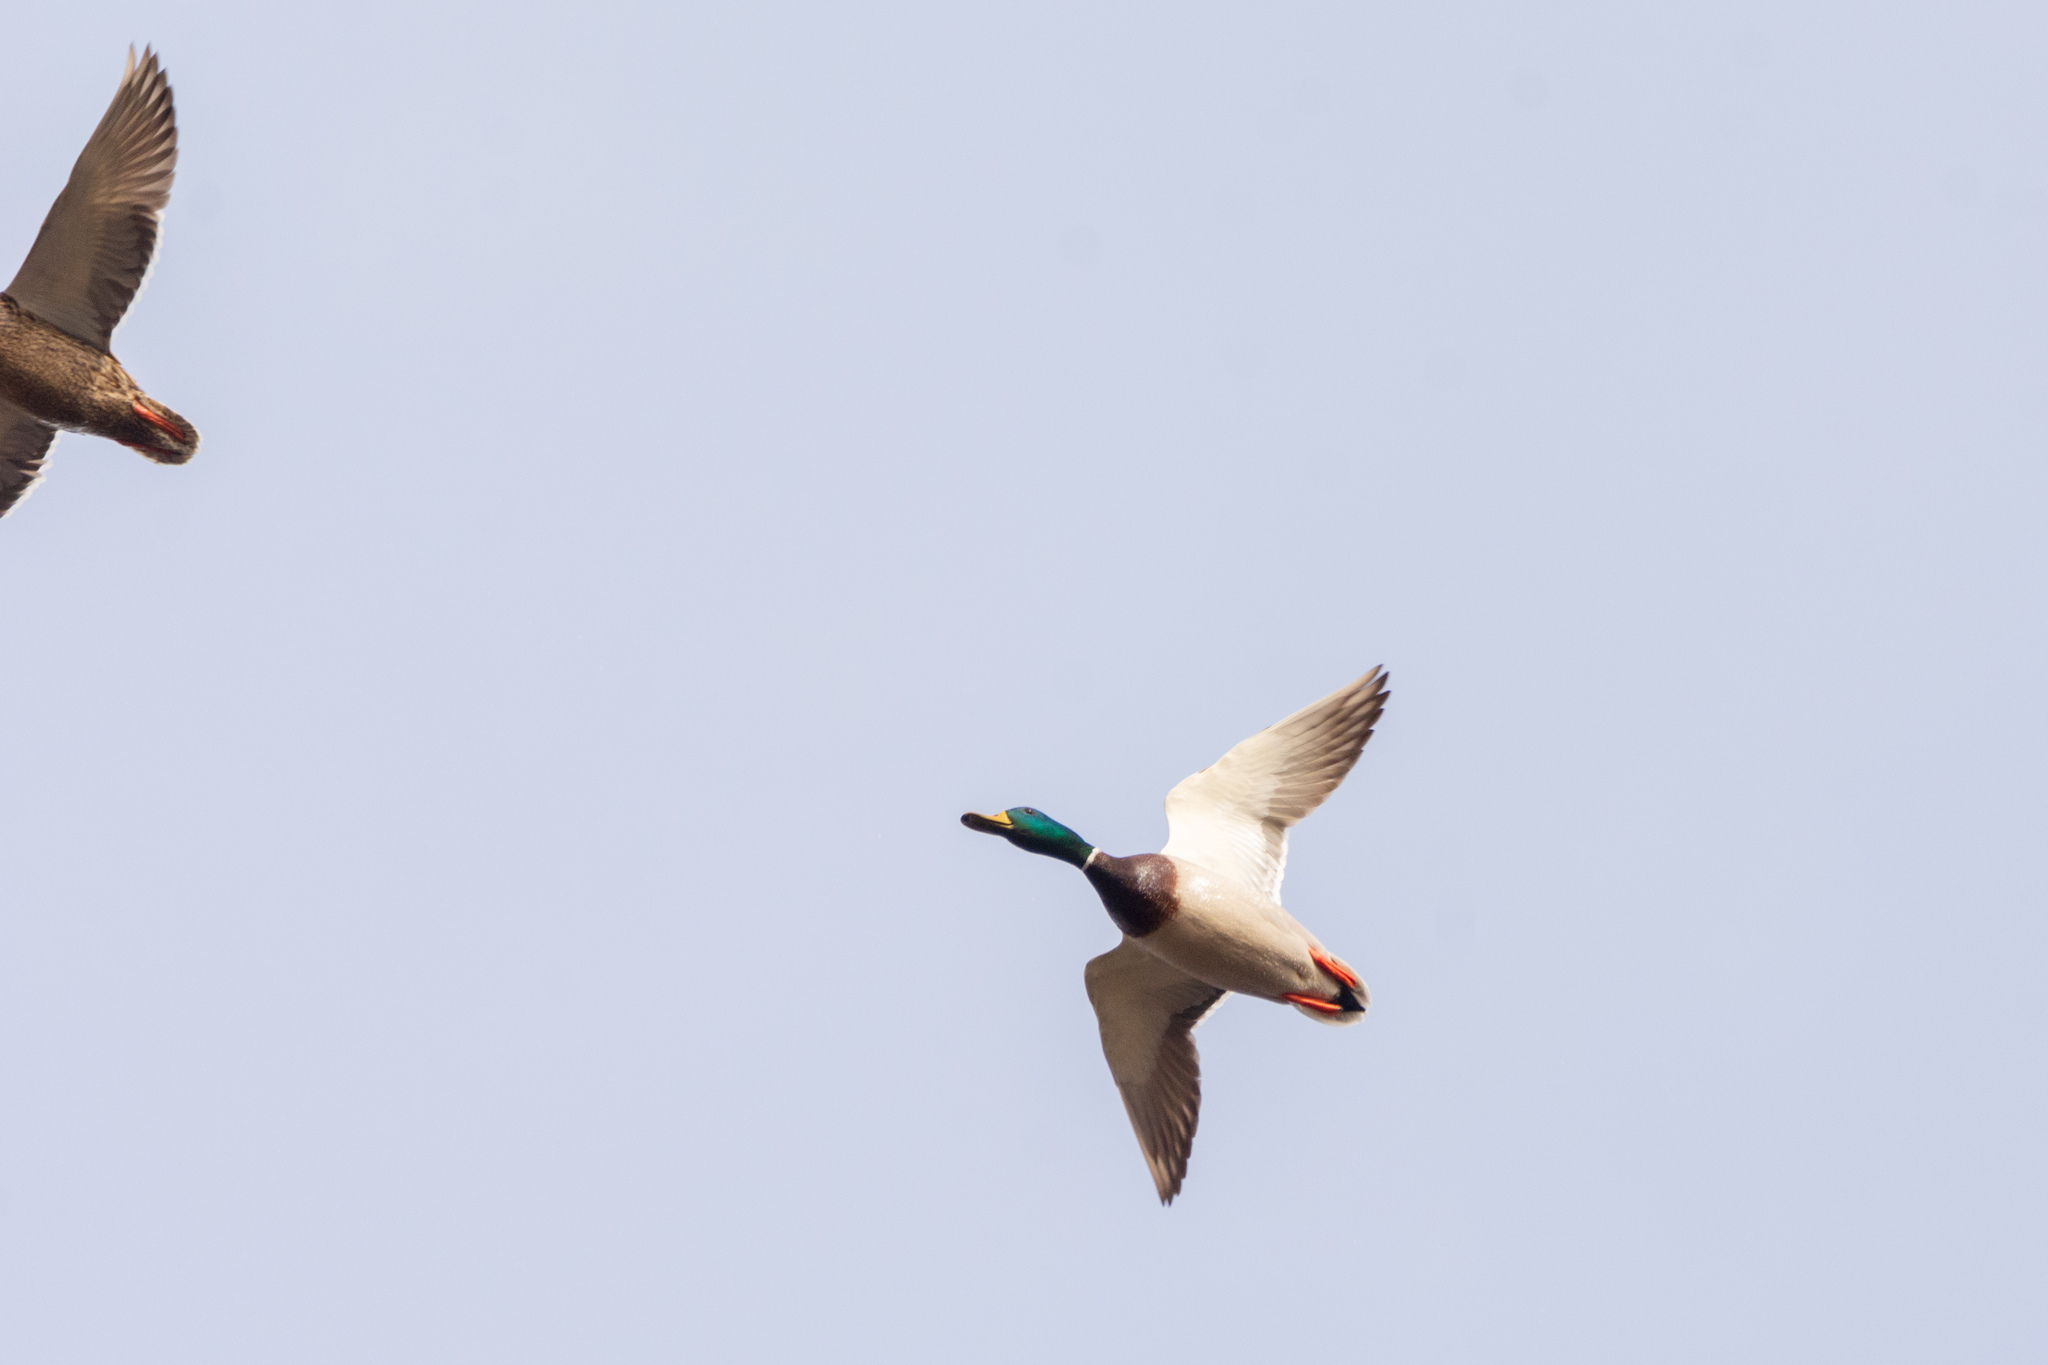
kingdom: Animalia
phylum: Chordata
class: Aves
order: Anseriformes
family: Anatidae
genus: Anas
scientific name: Anas platyrhynchos
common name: Mallard
